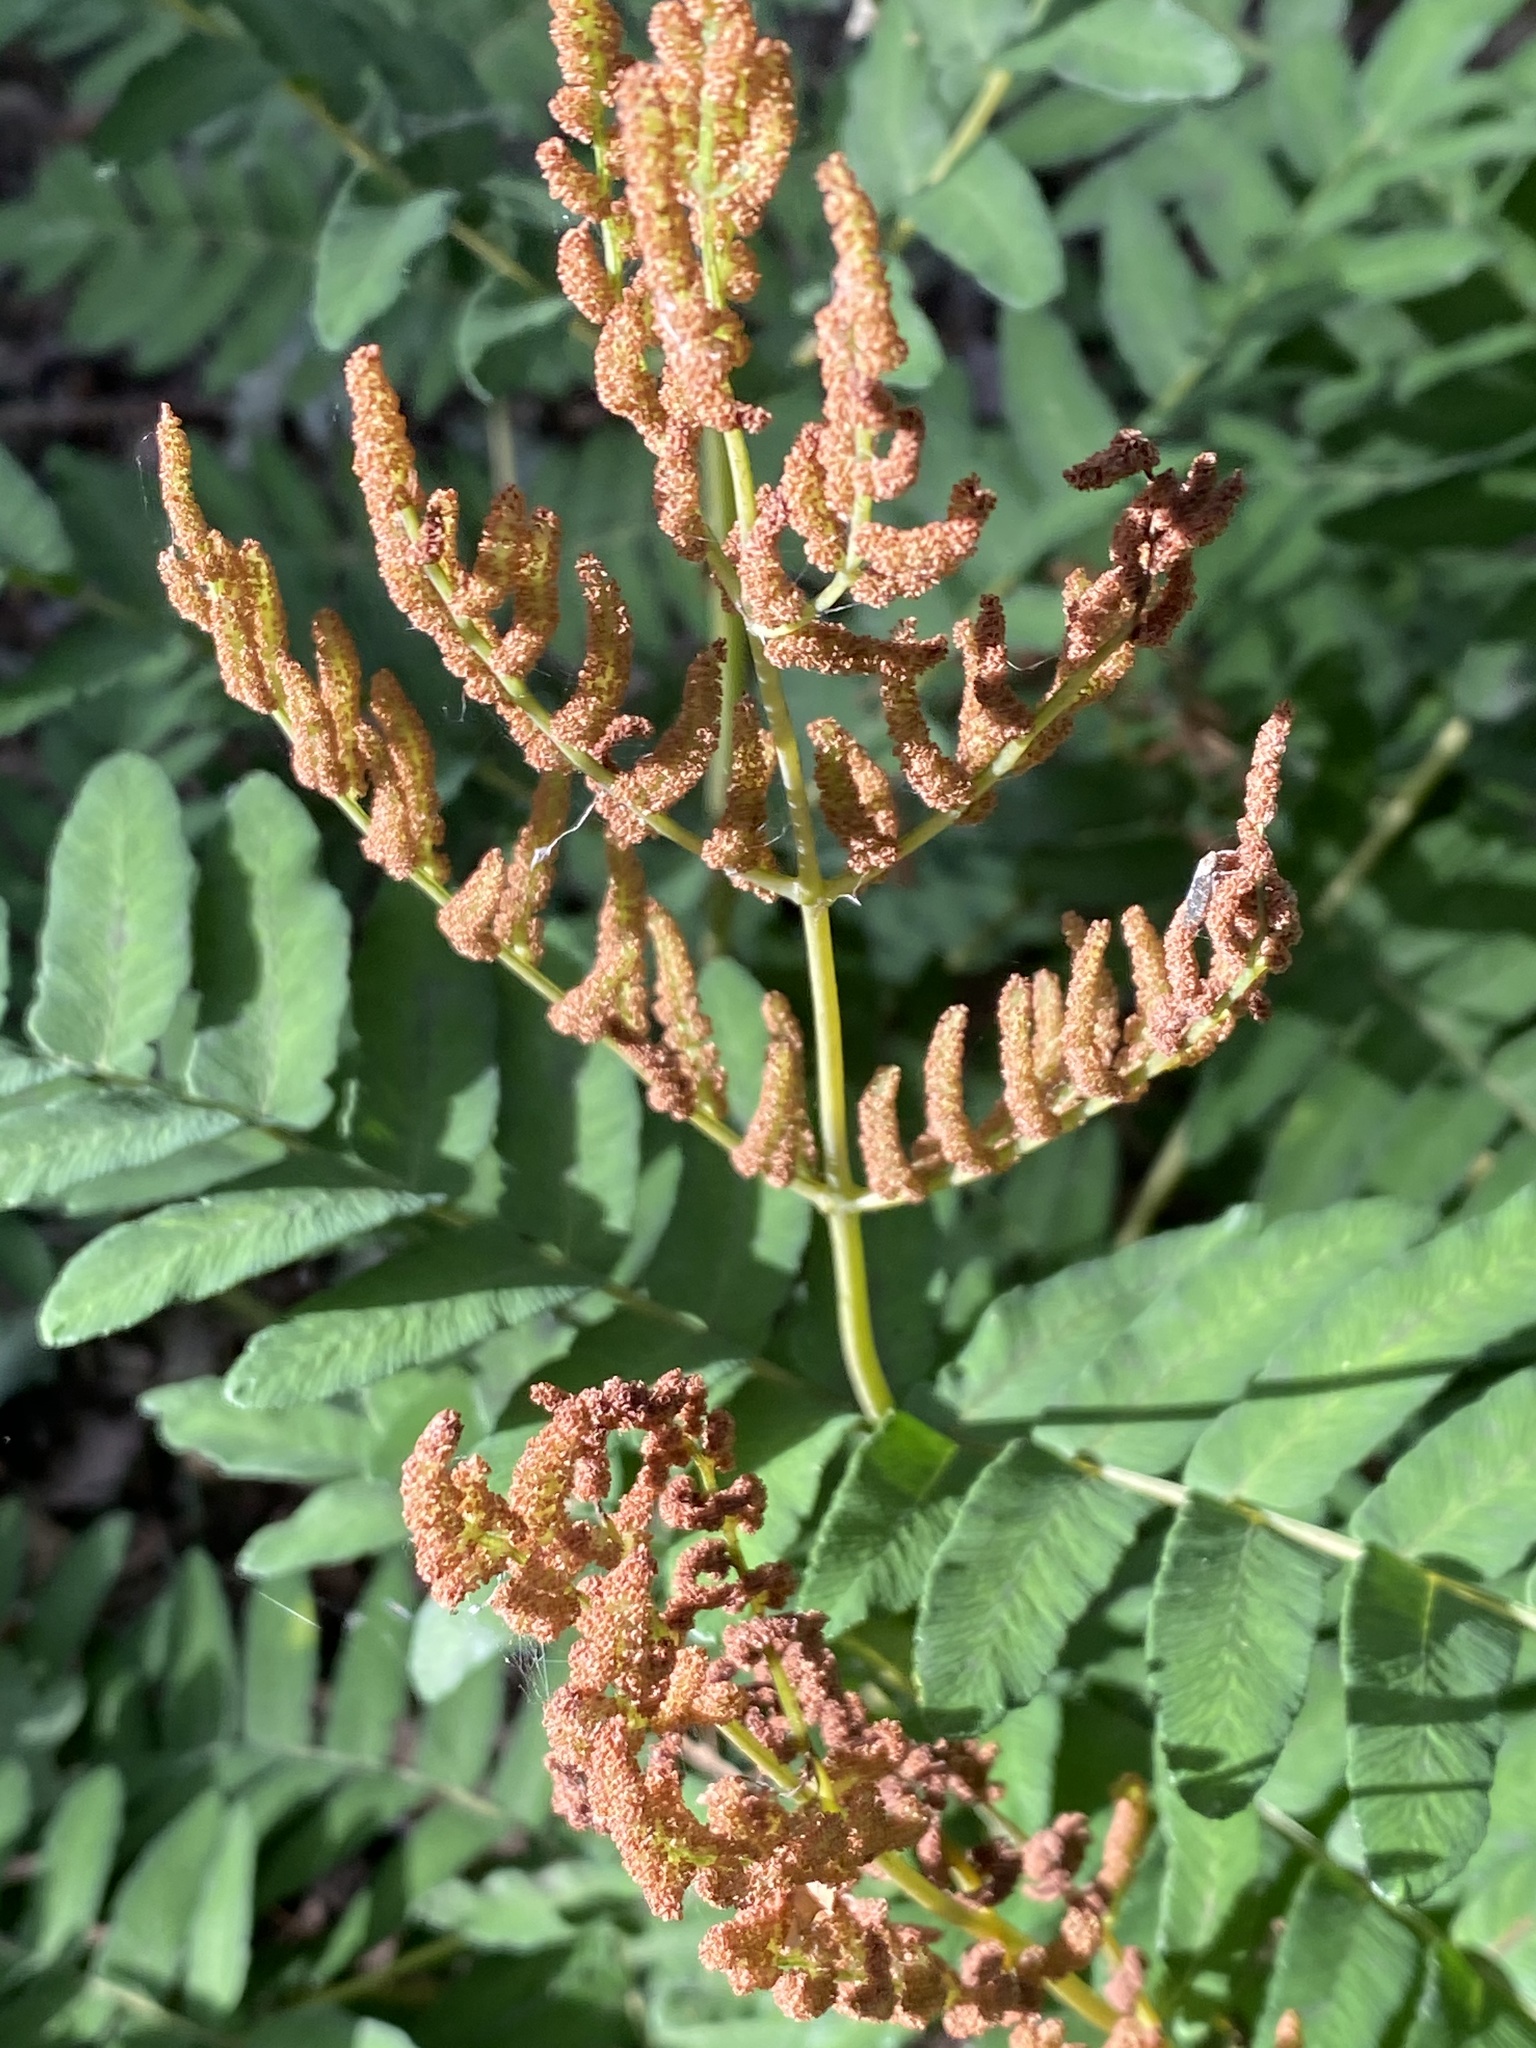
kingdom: Plantae
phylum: Tracheophyta
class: Polypodiopsida
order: Osmundales
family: Osmundaceae
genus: Osmunda
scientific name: Osmunda regalis
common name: Royal fern
